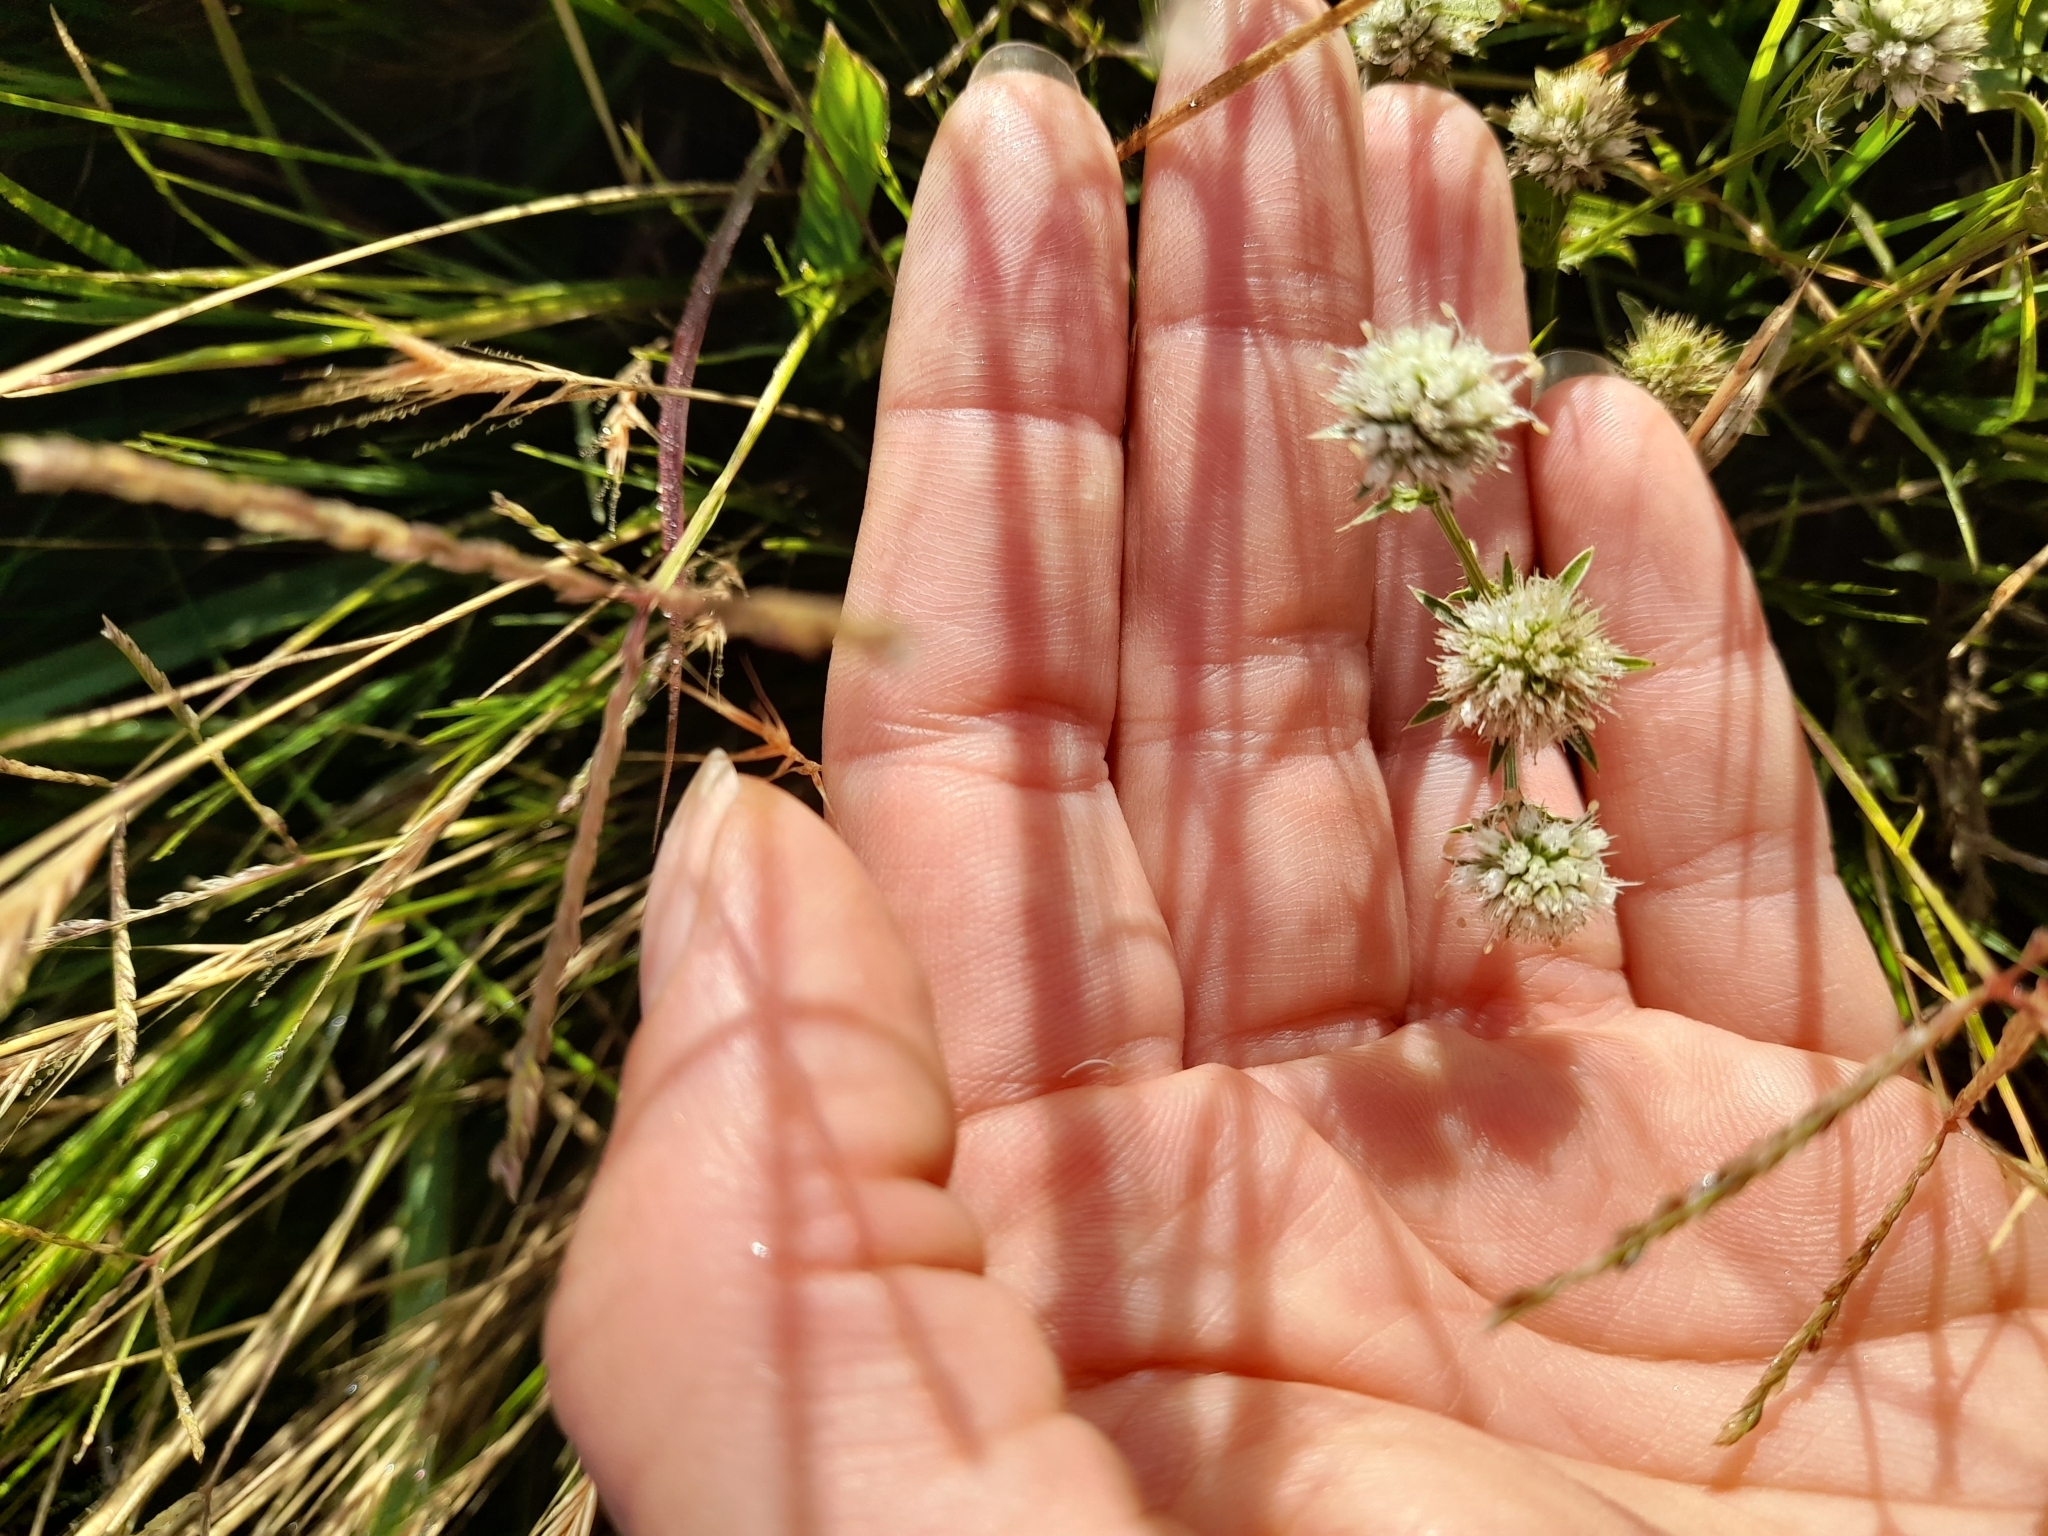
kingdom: Plantae
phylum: Tracheophyta
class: Magnoliopsida
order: Apiales
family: Apiaceae
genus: Eryngium
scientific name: Eryngium nudicaule
